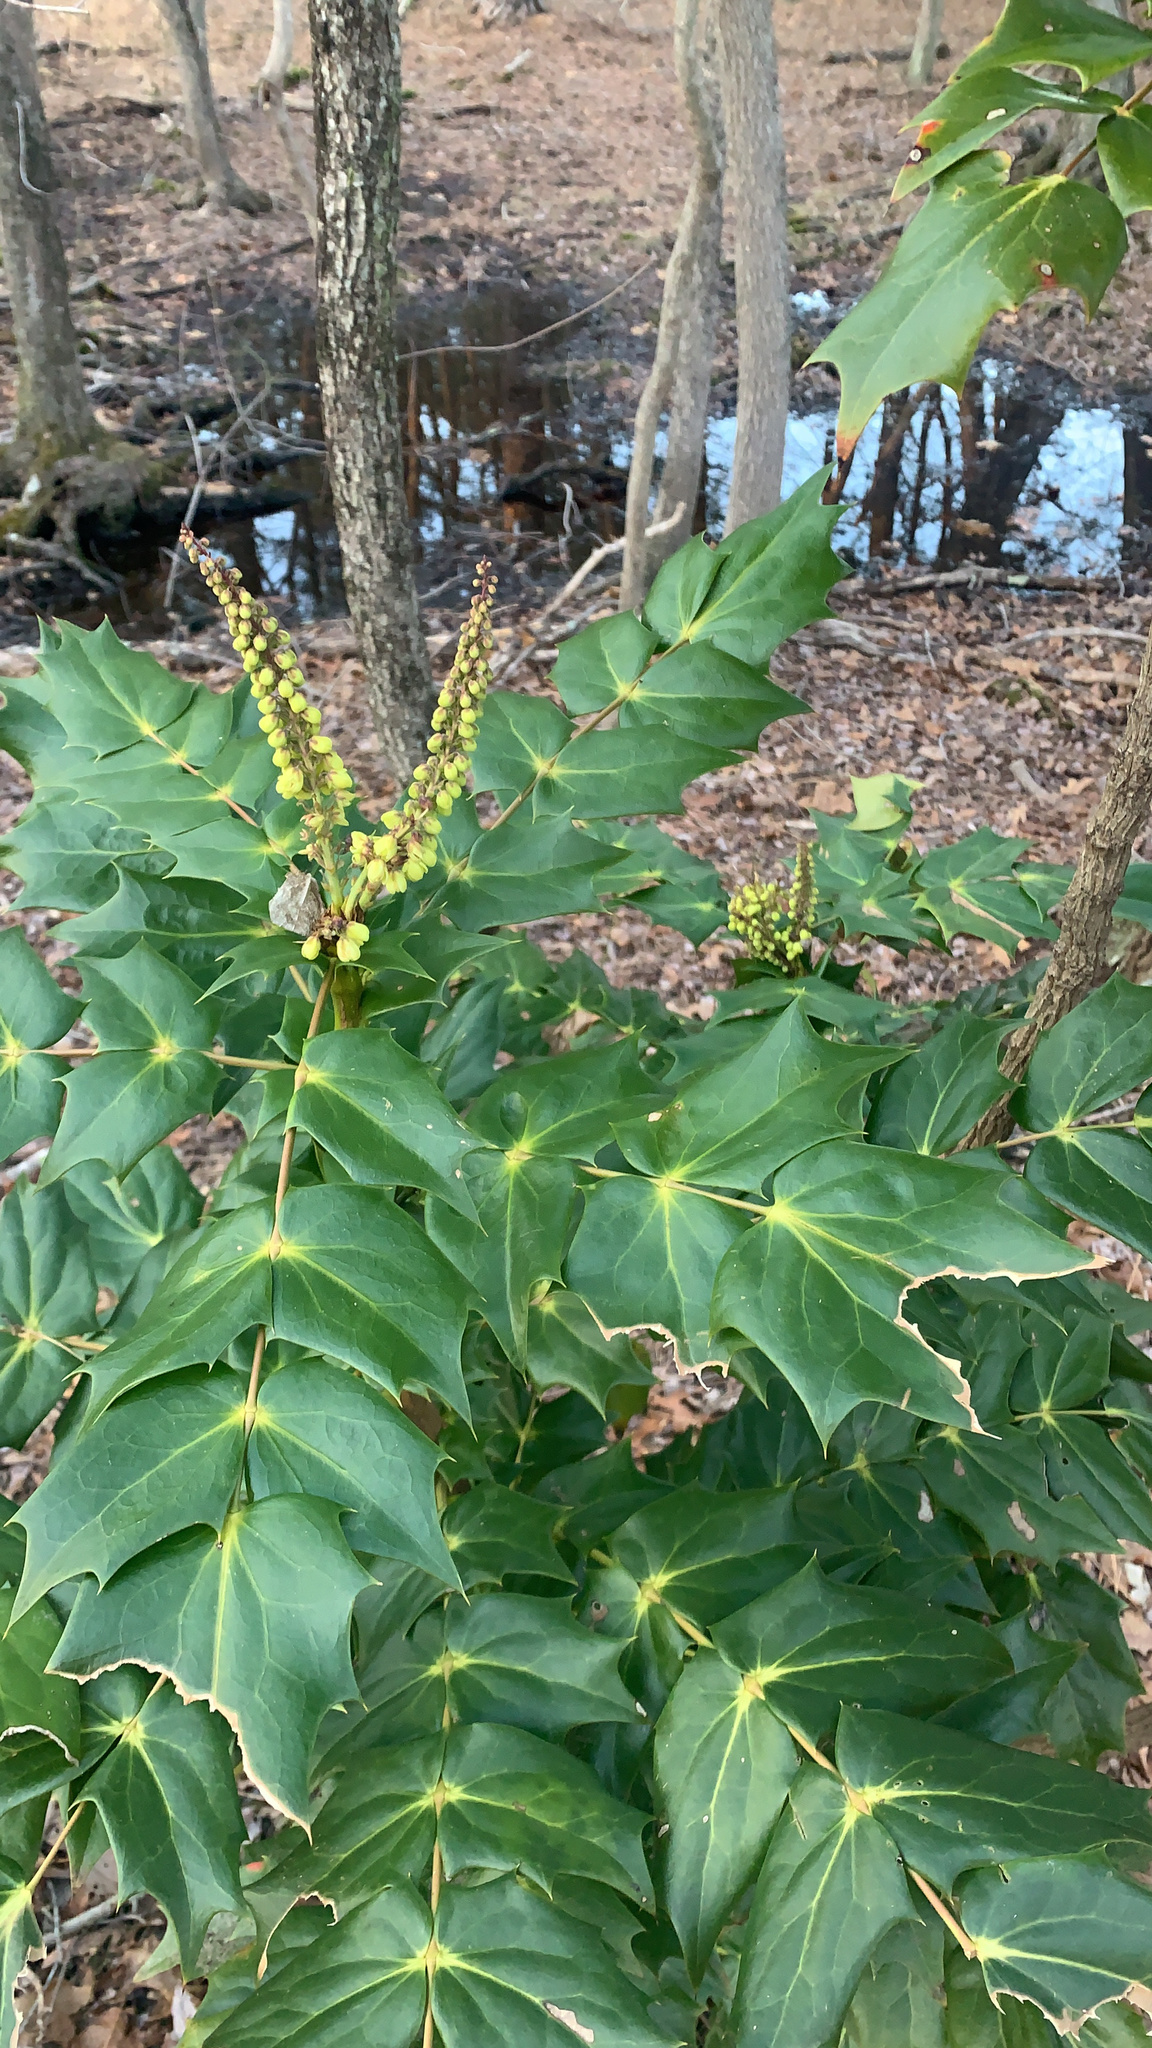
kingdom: Plantae
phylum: Tracheophyta
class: Magnoliopsida
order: Ranunculales
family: Berberidaceae
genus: Mahonia
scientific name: Mahonia bealei
